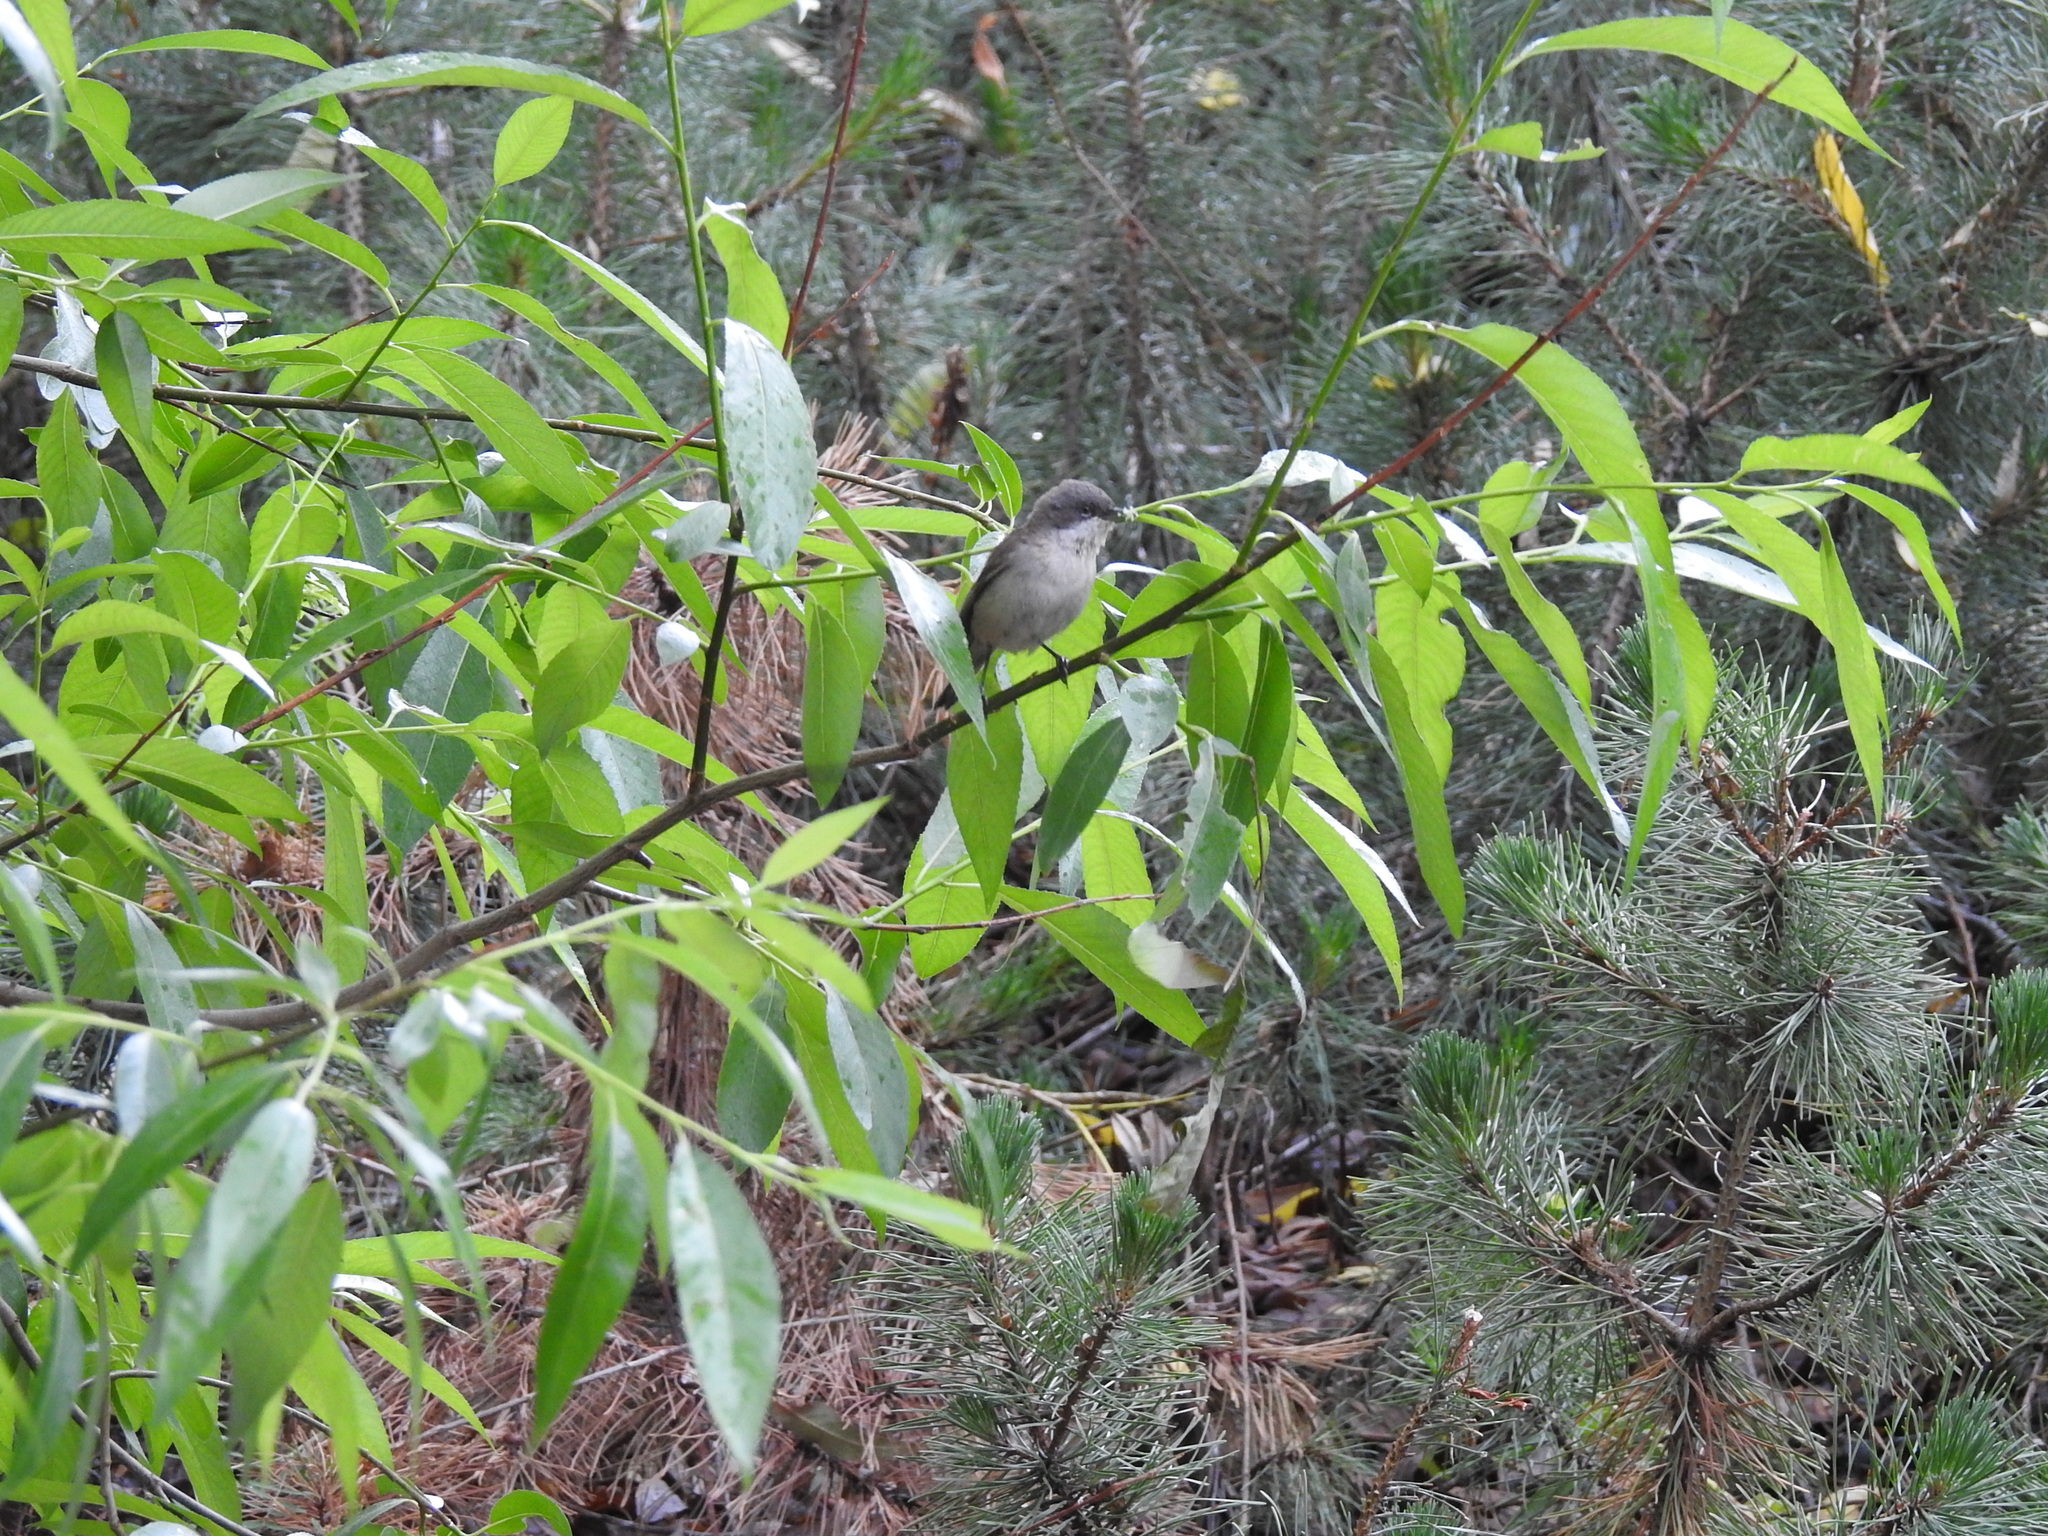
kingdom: Animalia
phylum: Chordata
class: Aves
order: Passeriformes
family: Sylviidae
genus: Sylvia
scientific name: Sylvia curruca
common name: Lesser whitethroat
